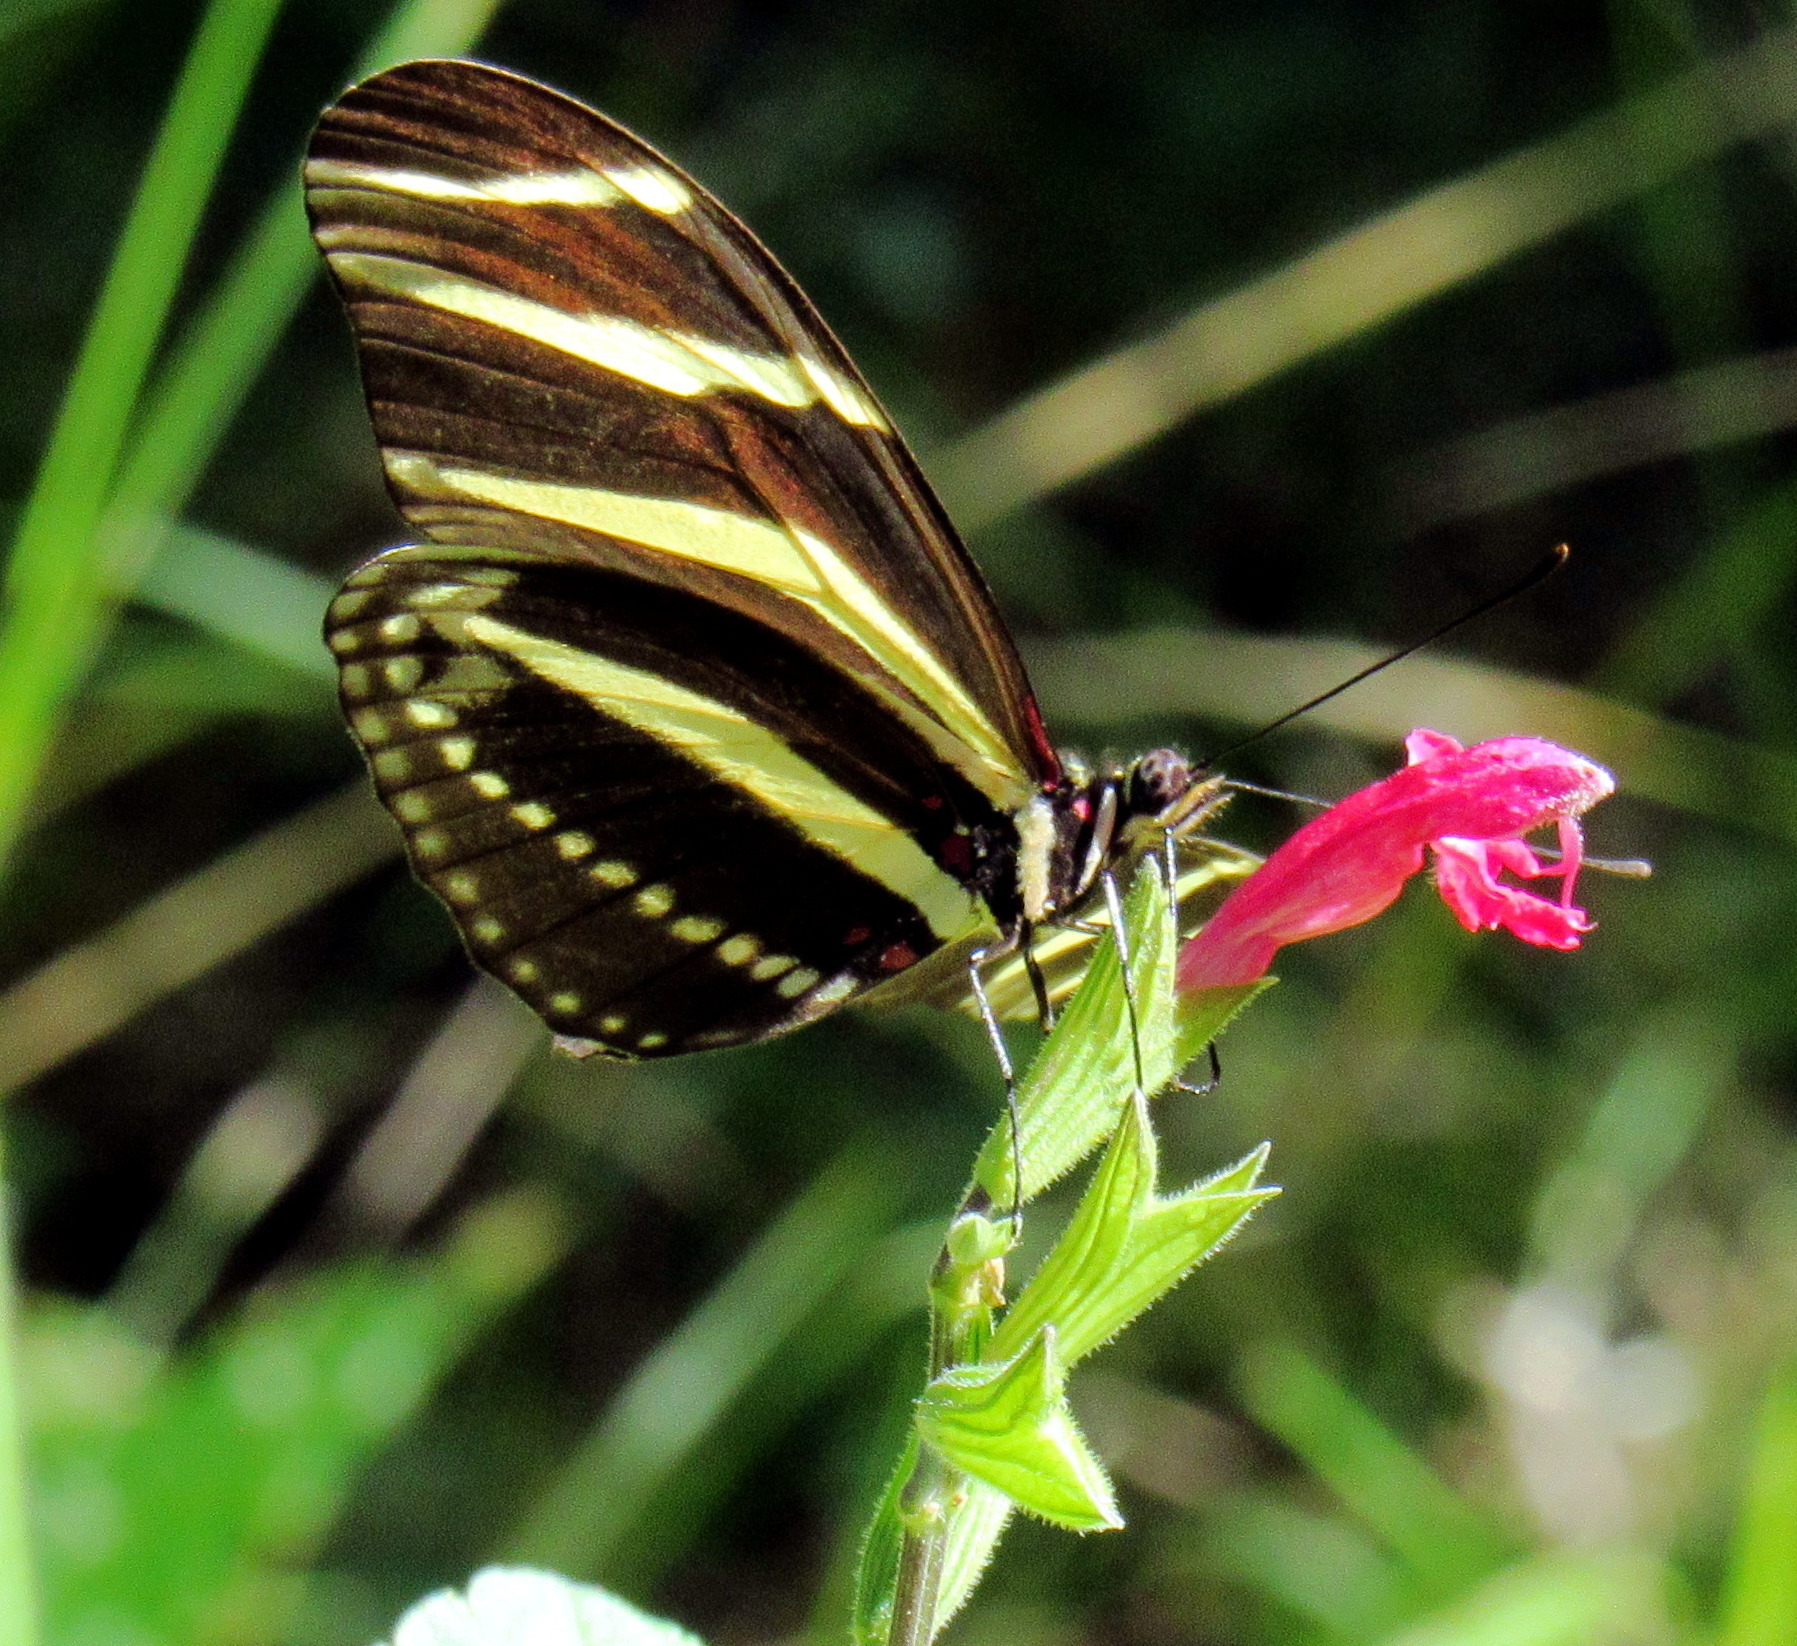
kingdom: Animalia
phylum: Arthropoda
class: Insecta
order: Lepidoptera
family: Nymphalidae
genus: Heliconius
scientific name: Heliconius charithonia
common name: Zebra long wing
